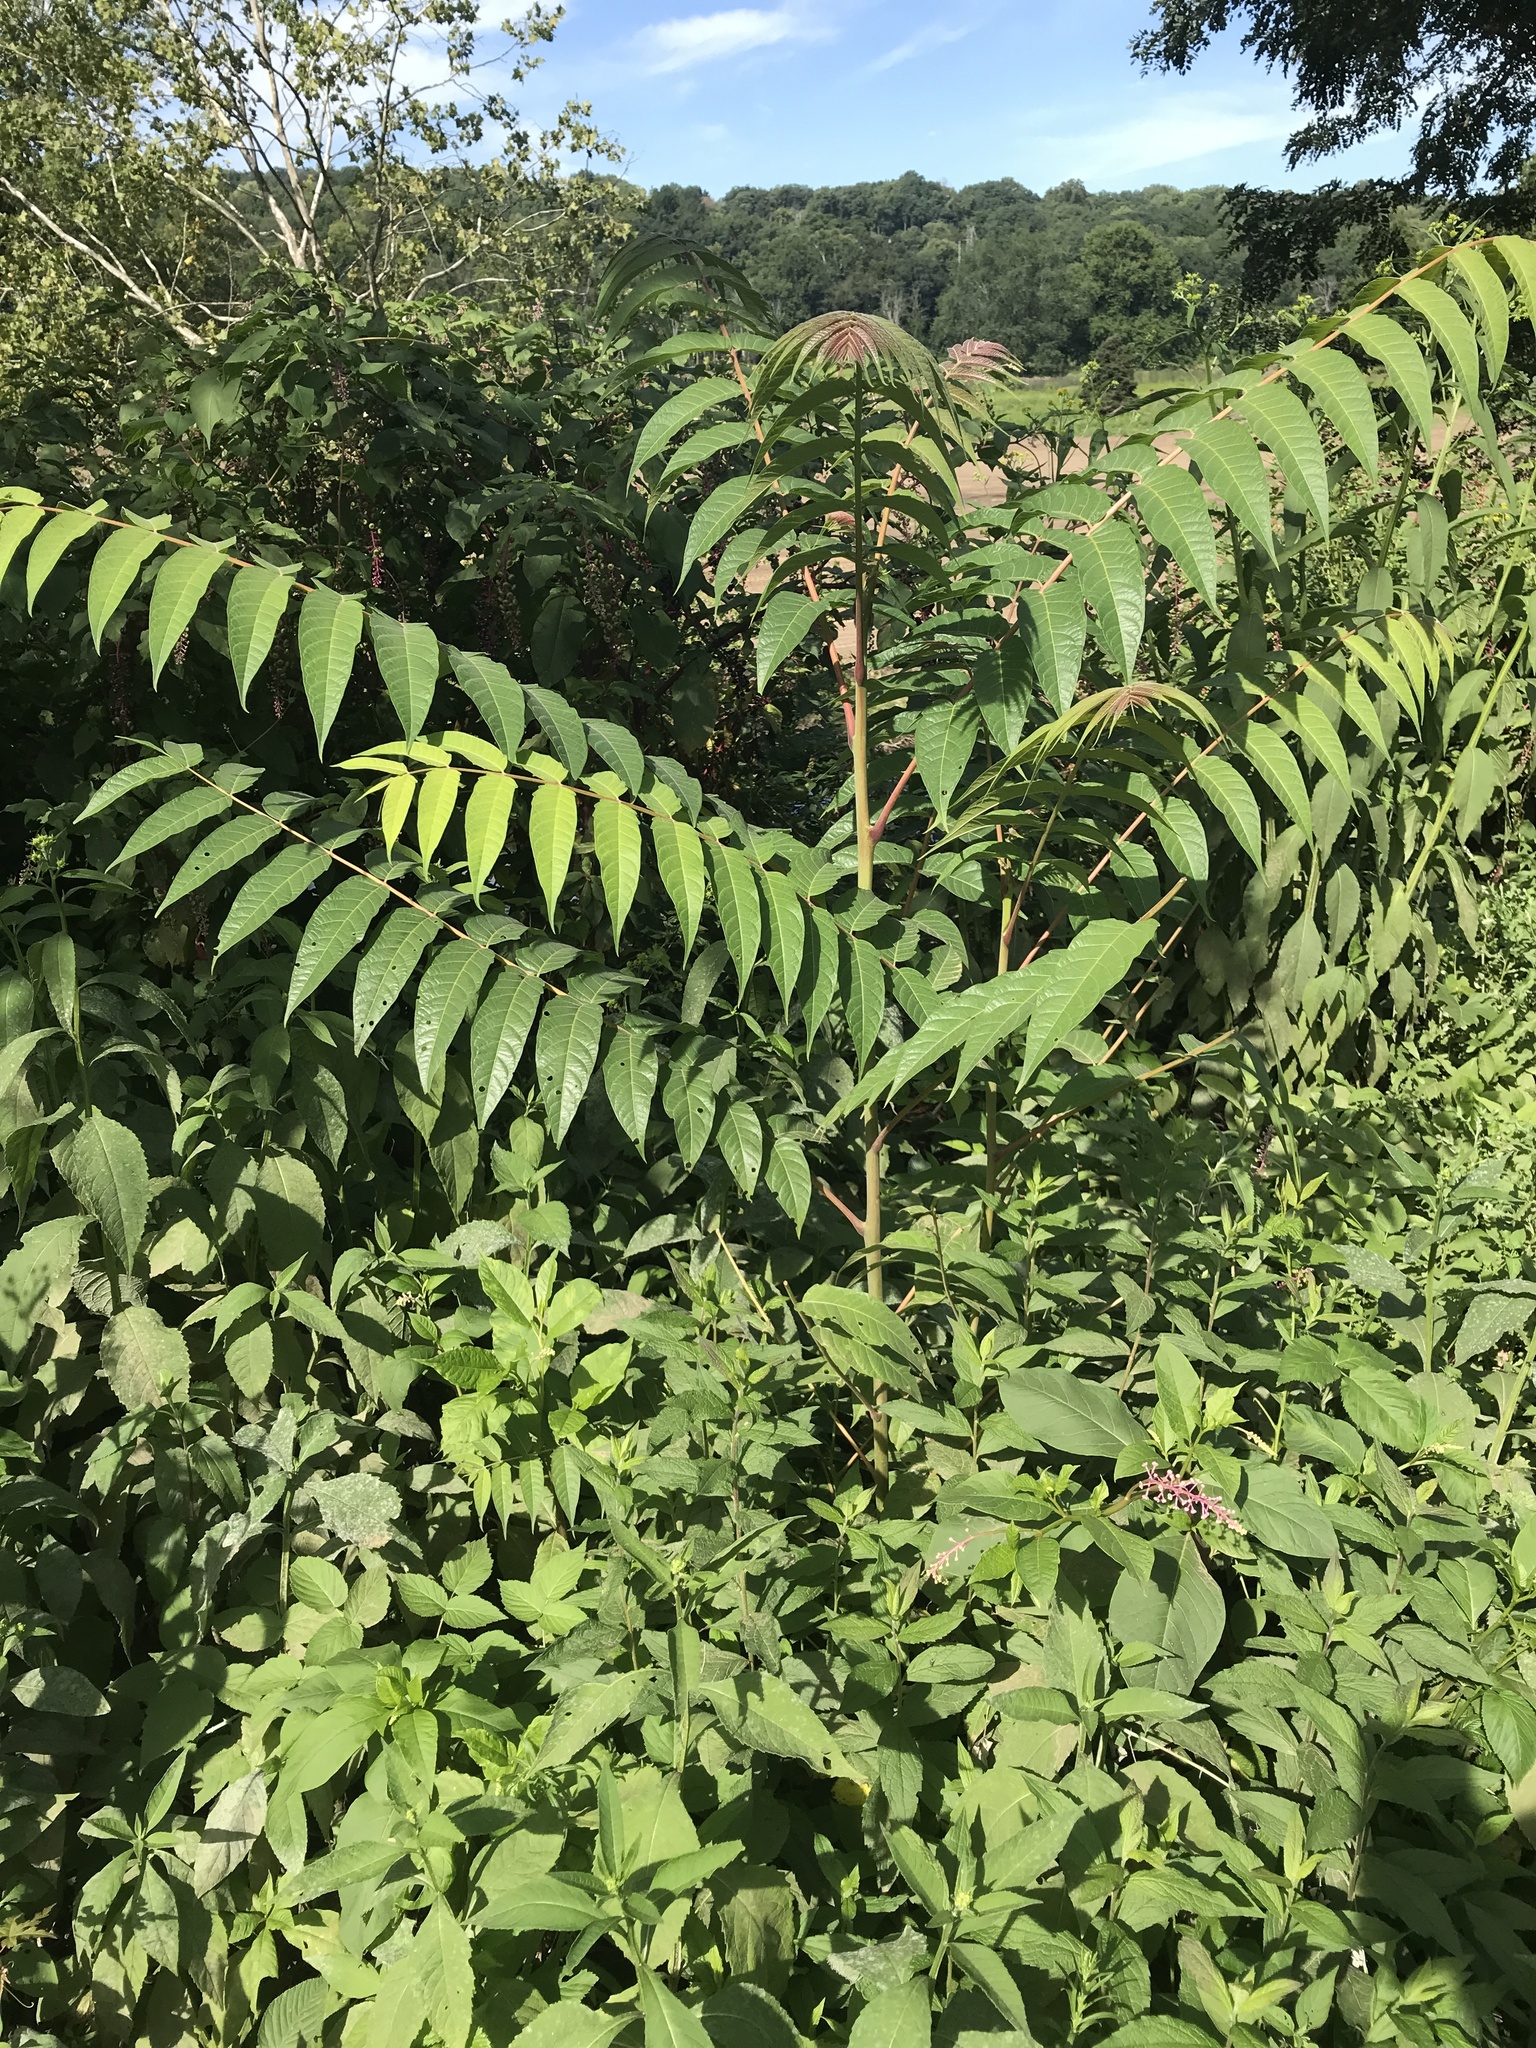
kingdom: Plantae
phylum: Tracheophyta
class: Magnoliopsida
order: Sapindales
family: Simaroubaceae
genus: Ailanthus
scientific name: Ailanthus altissima
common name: Tree-of-heaven
